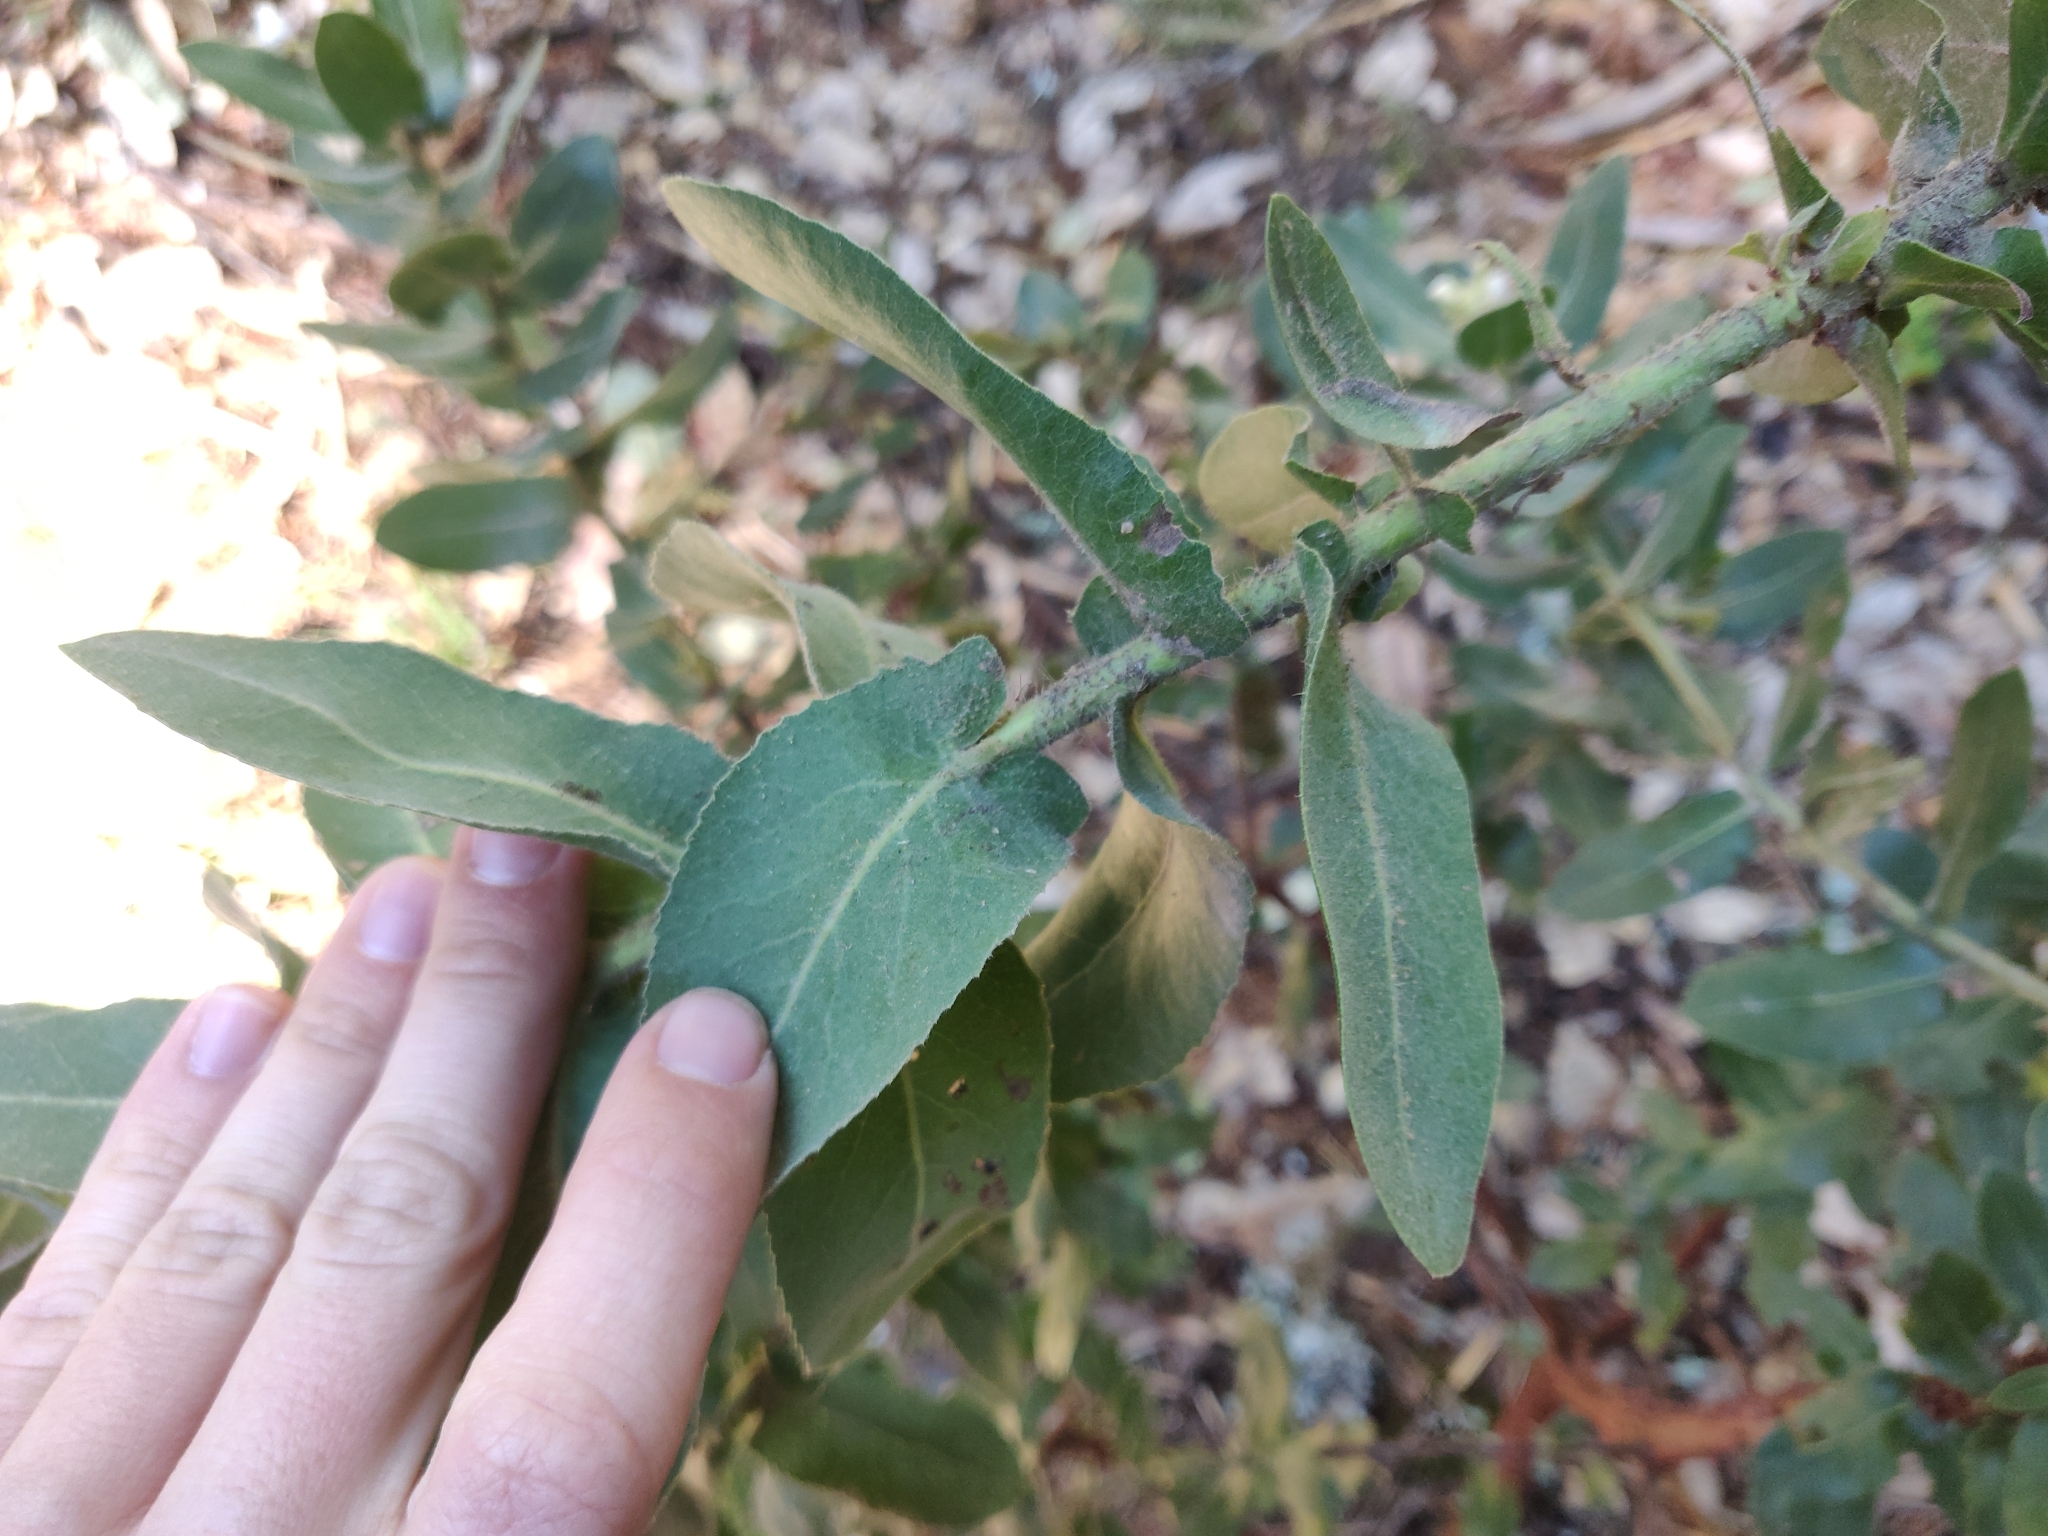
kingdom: Plantae
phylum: Tracheophyta
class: Magnoliopsida
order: Ericales
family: Ericaceae
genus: Arctostaphylos
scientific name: Arctostaphylos regismontana
